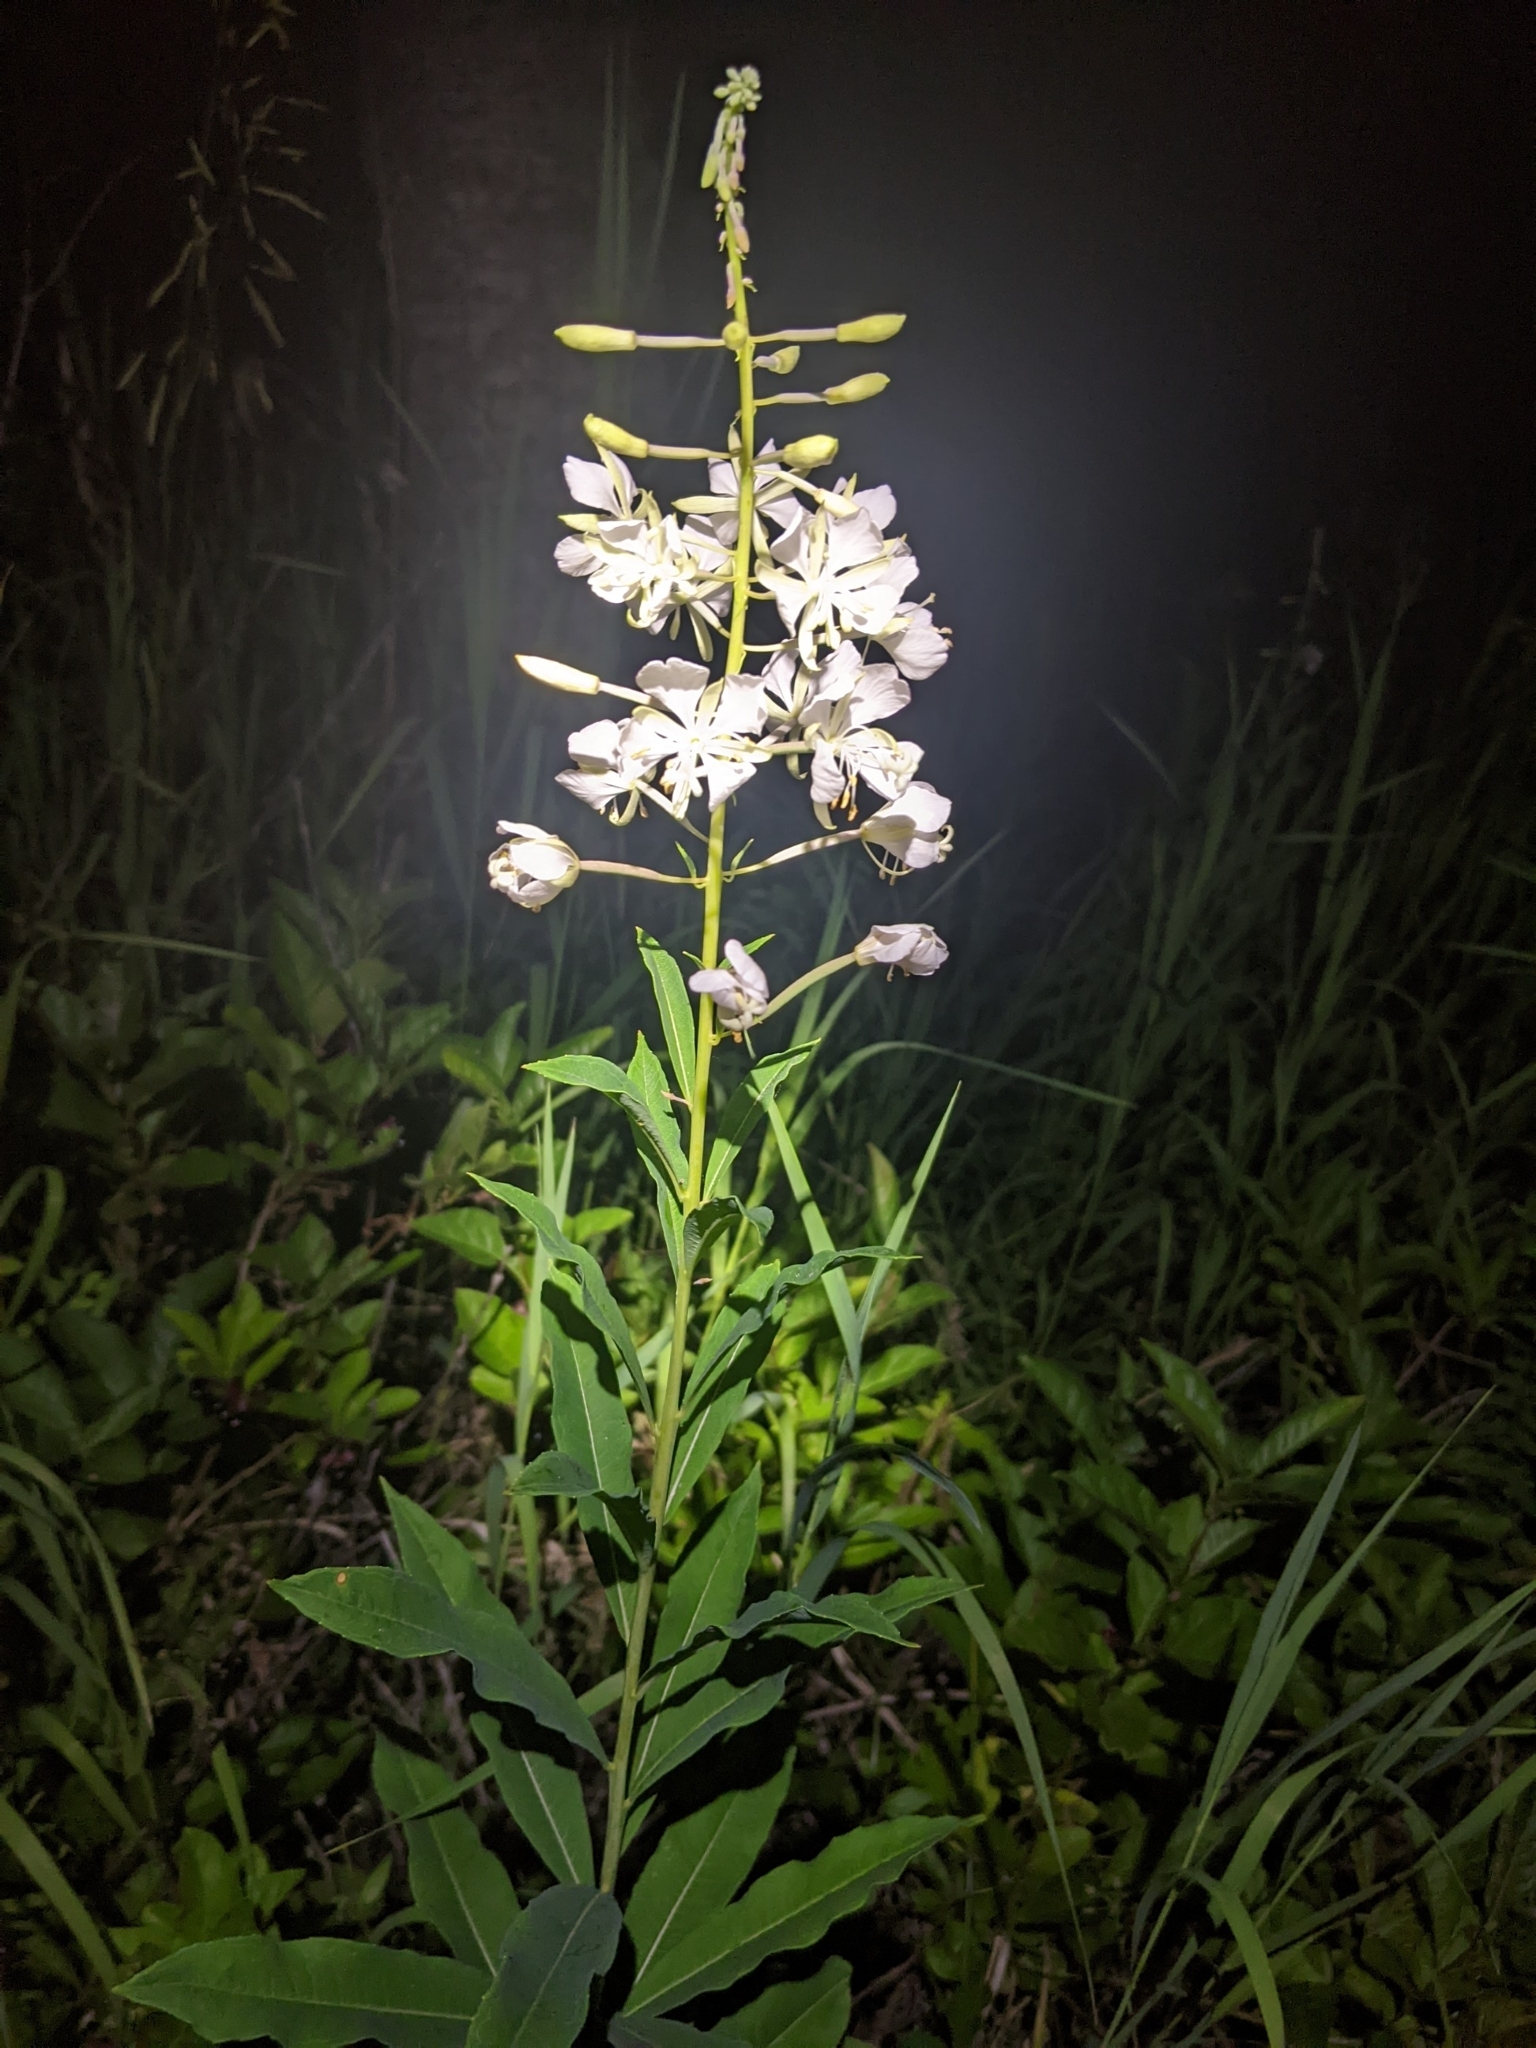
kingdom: Plantae
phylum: Tracheophyta
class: Magnoliopsida
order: Myrtales
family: Onagraceae
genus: Chamaenerion
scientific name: Chamaenerion angustifolium
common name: Fireweed
